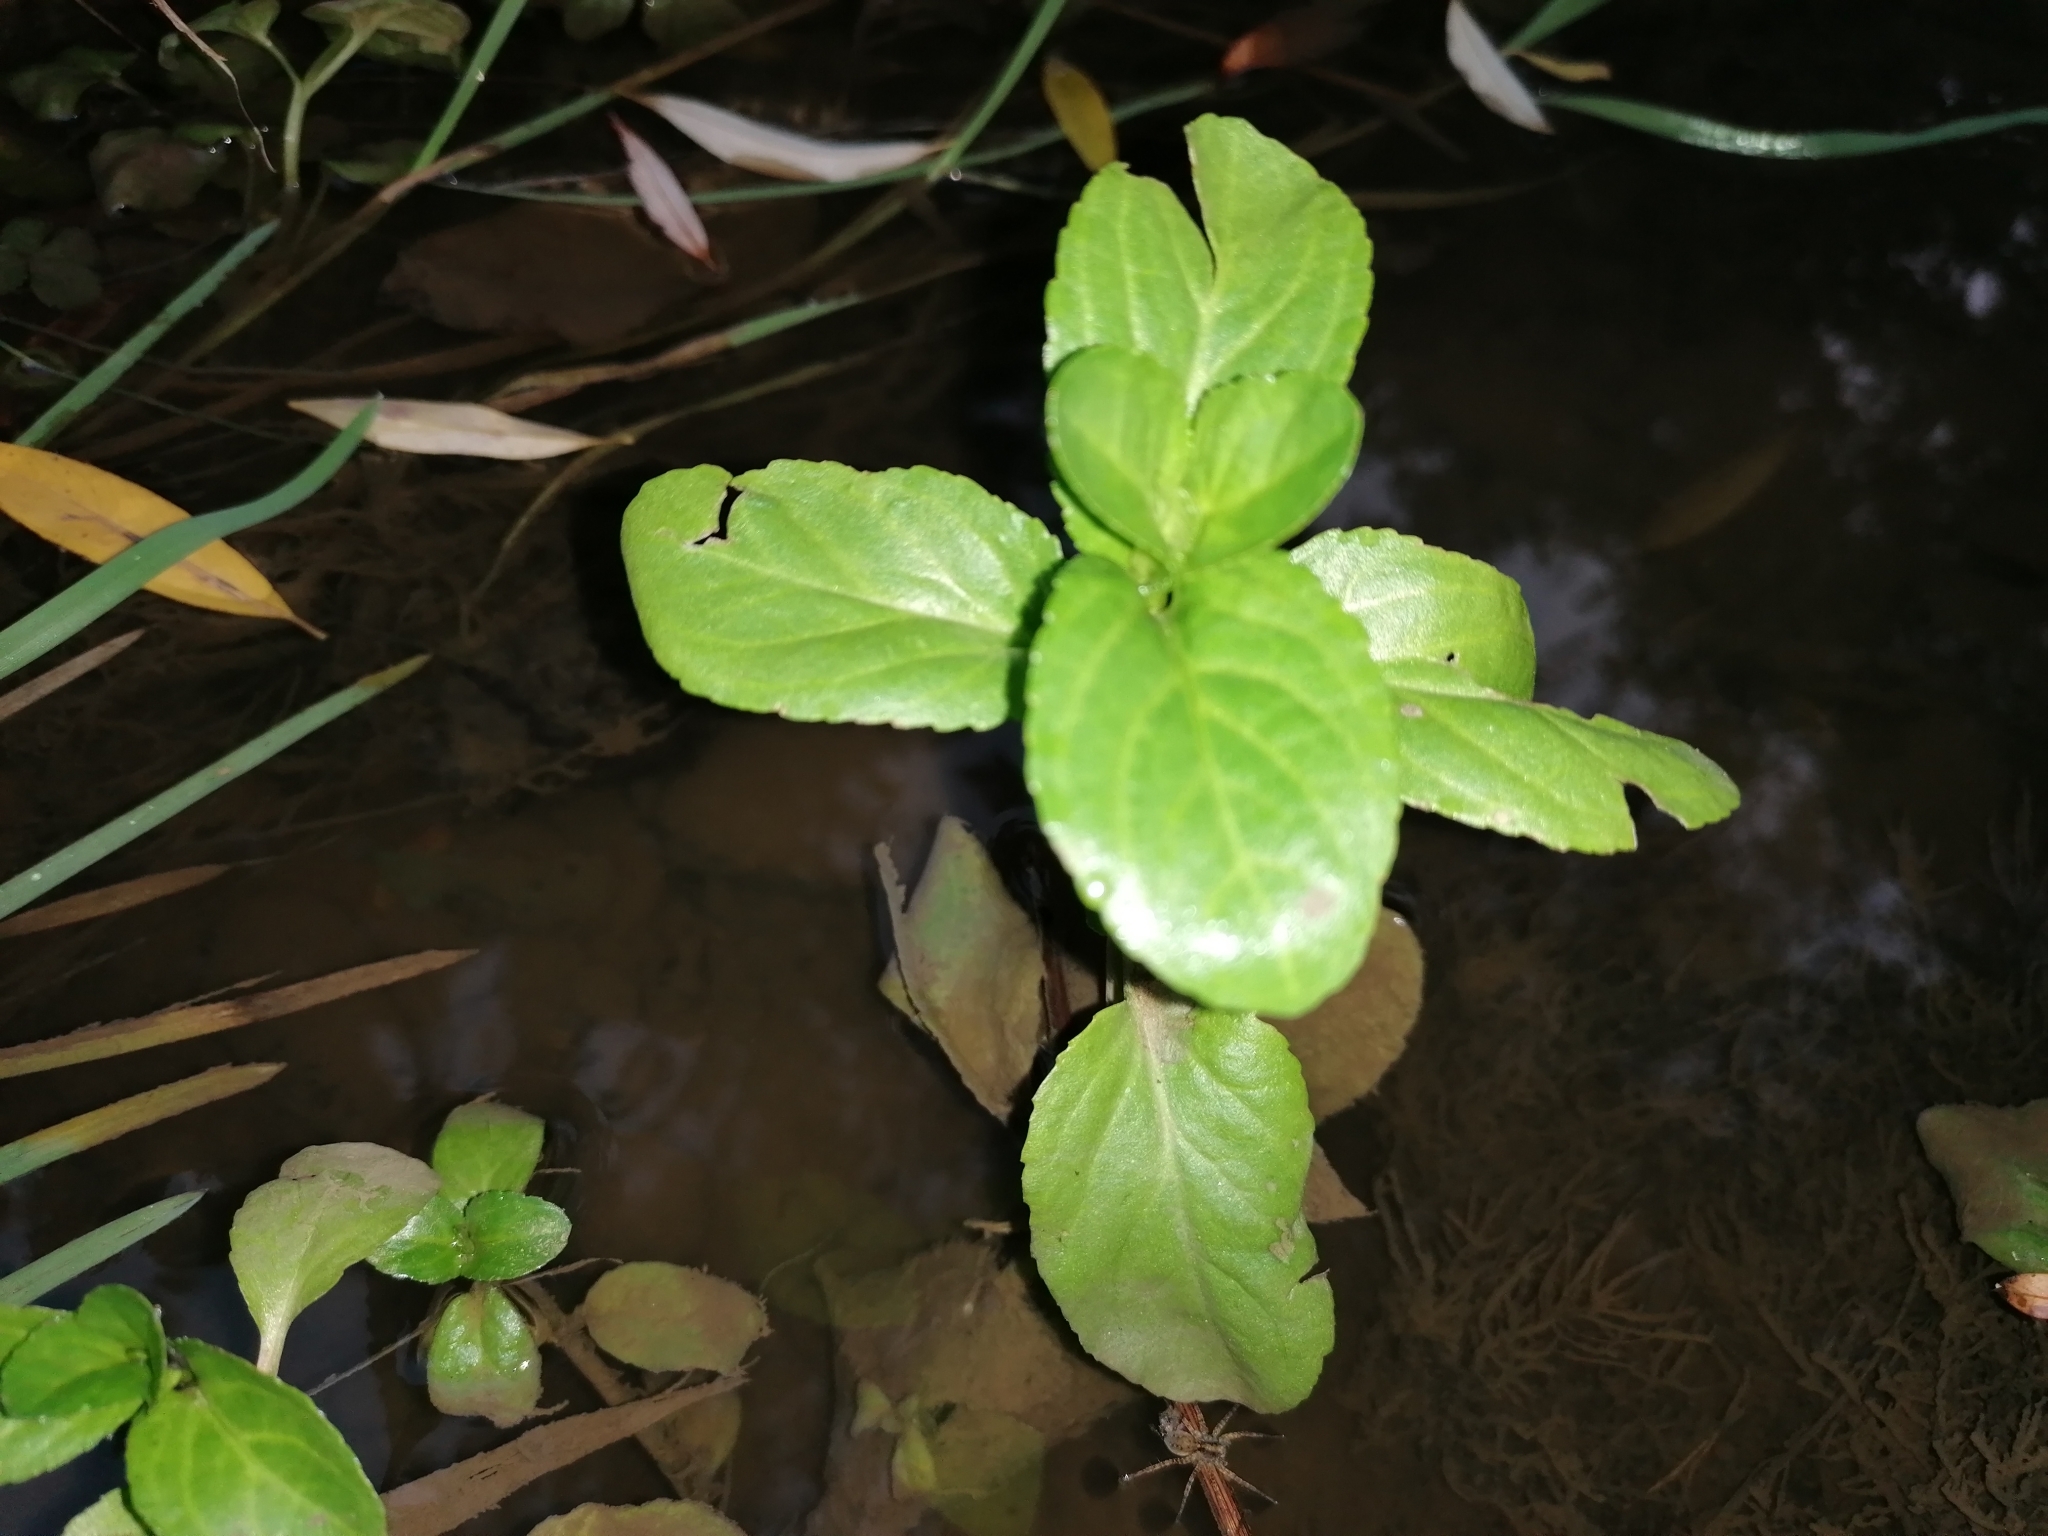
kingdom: Plantae
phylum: Tracheophyta
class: Magnoliopsida
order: Lamiales
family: Plantaginaceae
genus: Veronica
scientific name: Veronica beccabunga
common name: Brooklime
